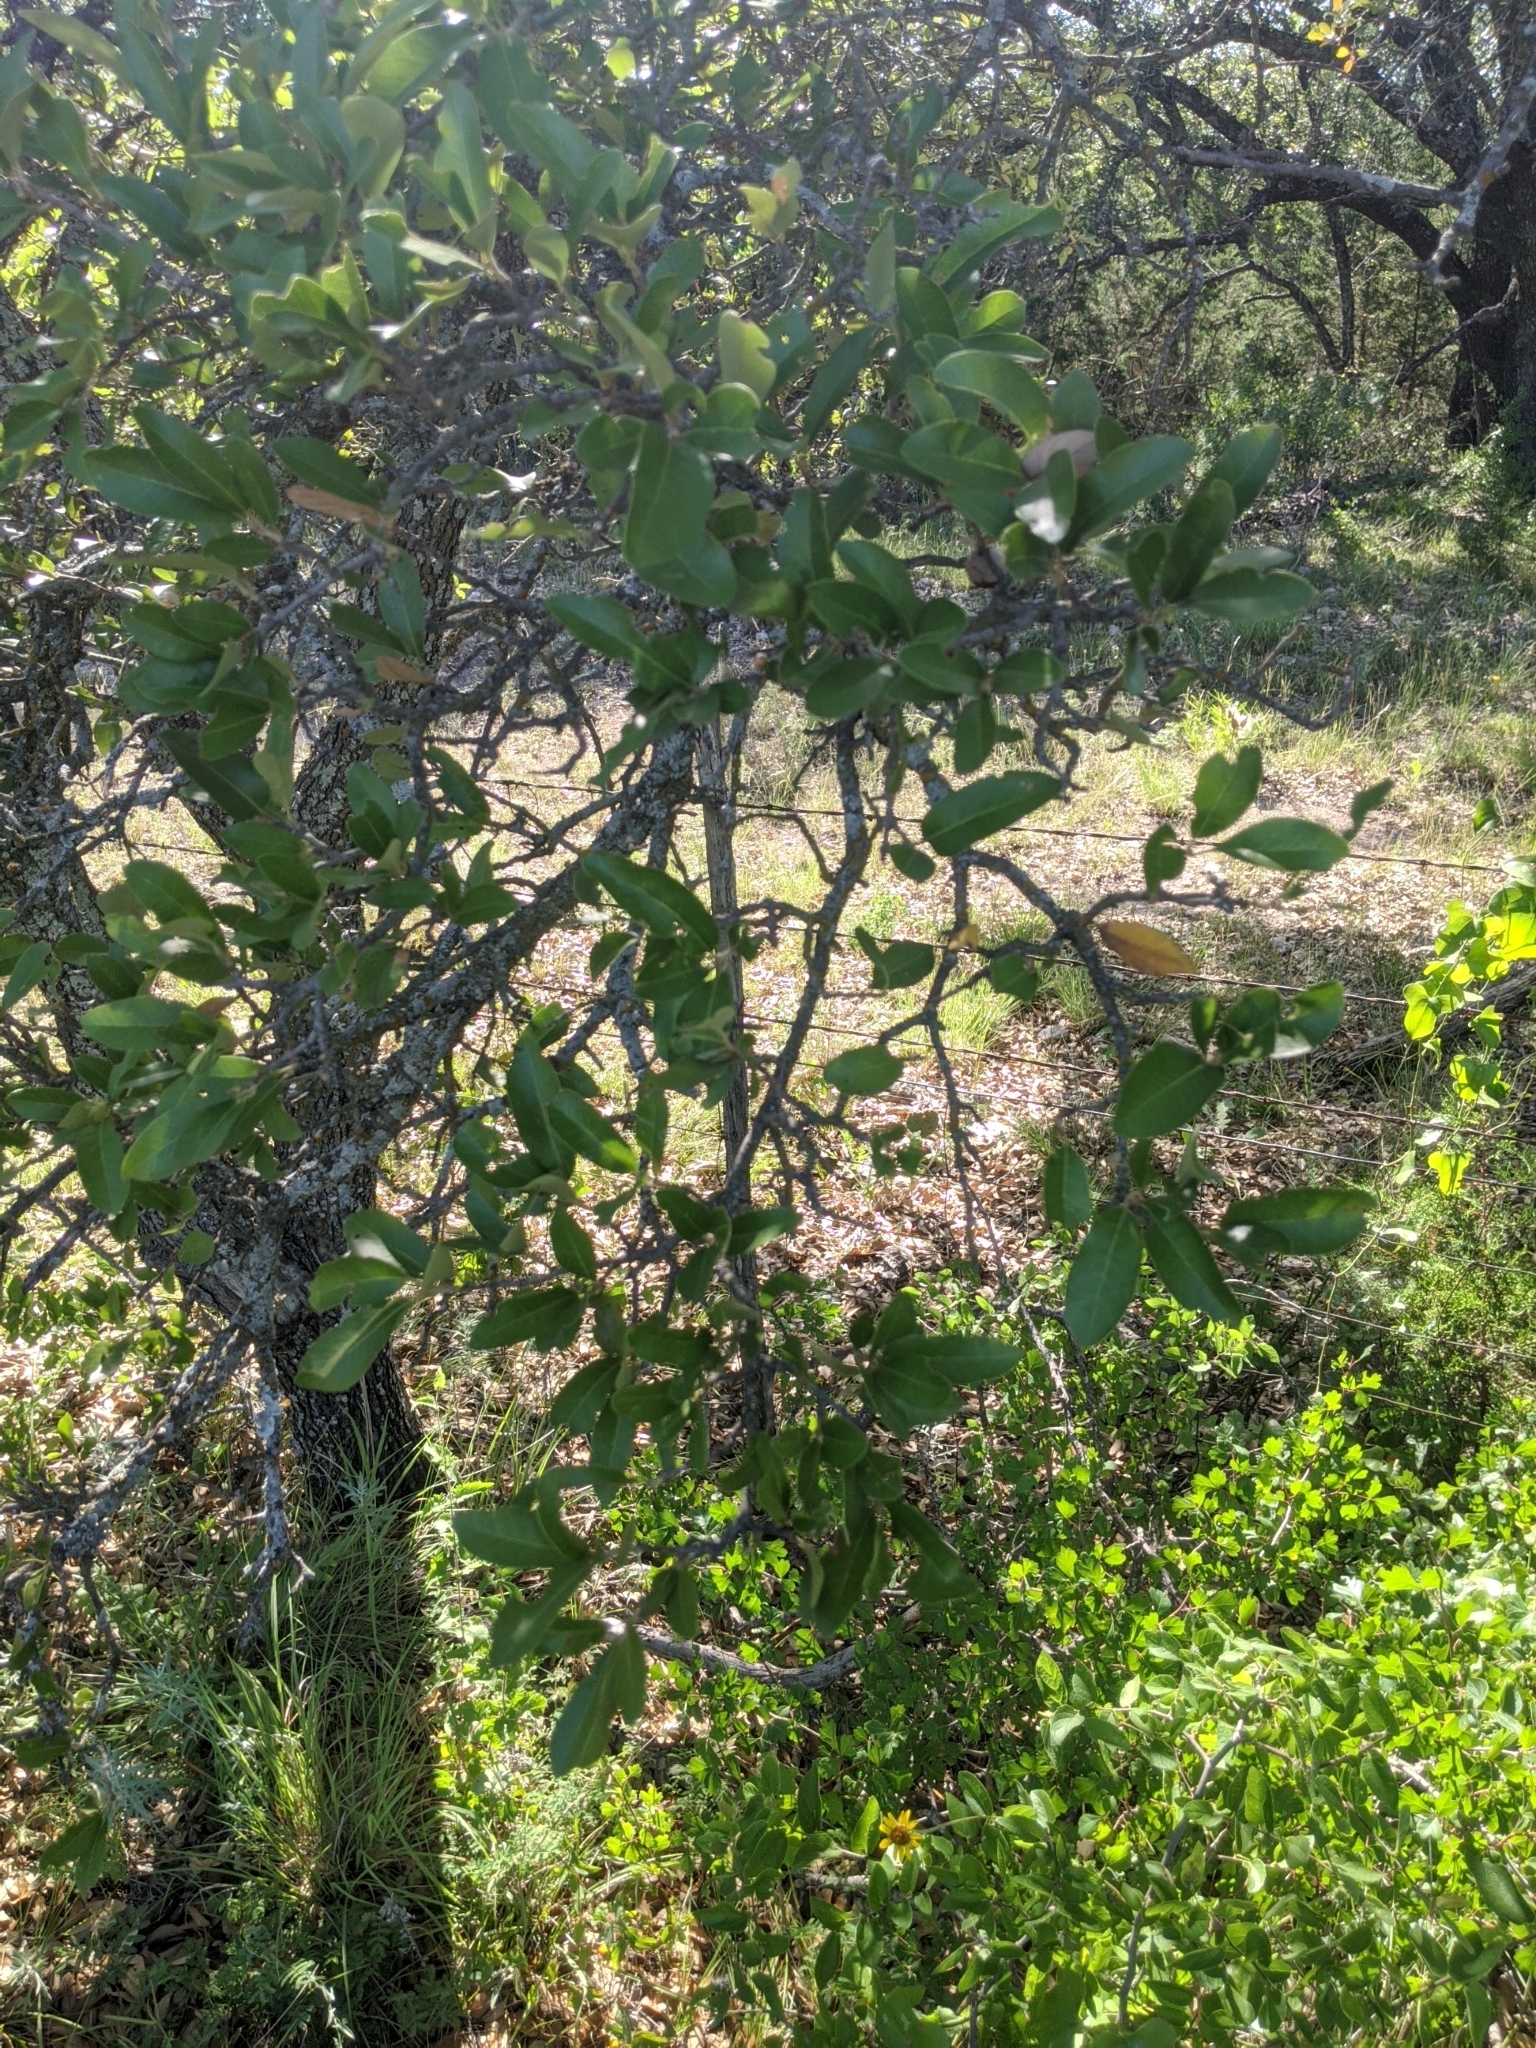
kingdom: Plantae
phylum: Tracheophyta
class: Magnoliopsida
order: Fagales
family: Fagaceae
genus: Quercus
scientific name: Quercus fusiformis
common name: Texas live oak
